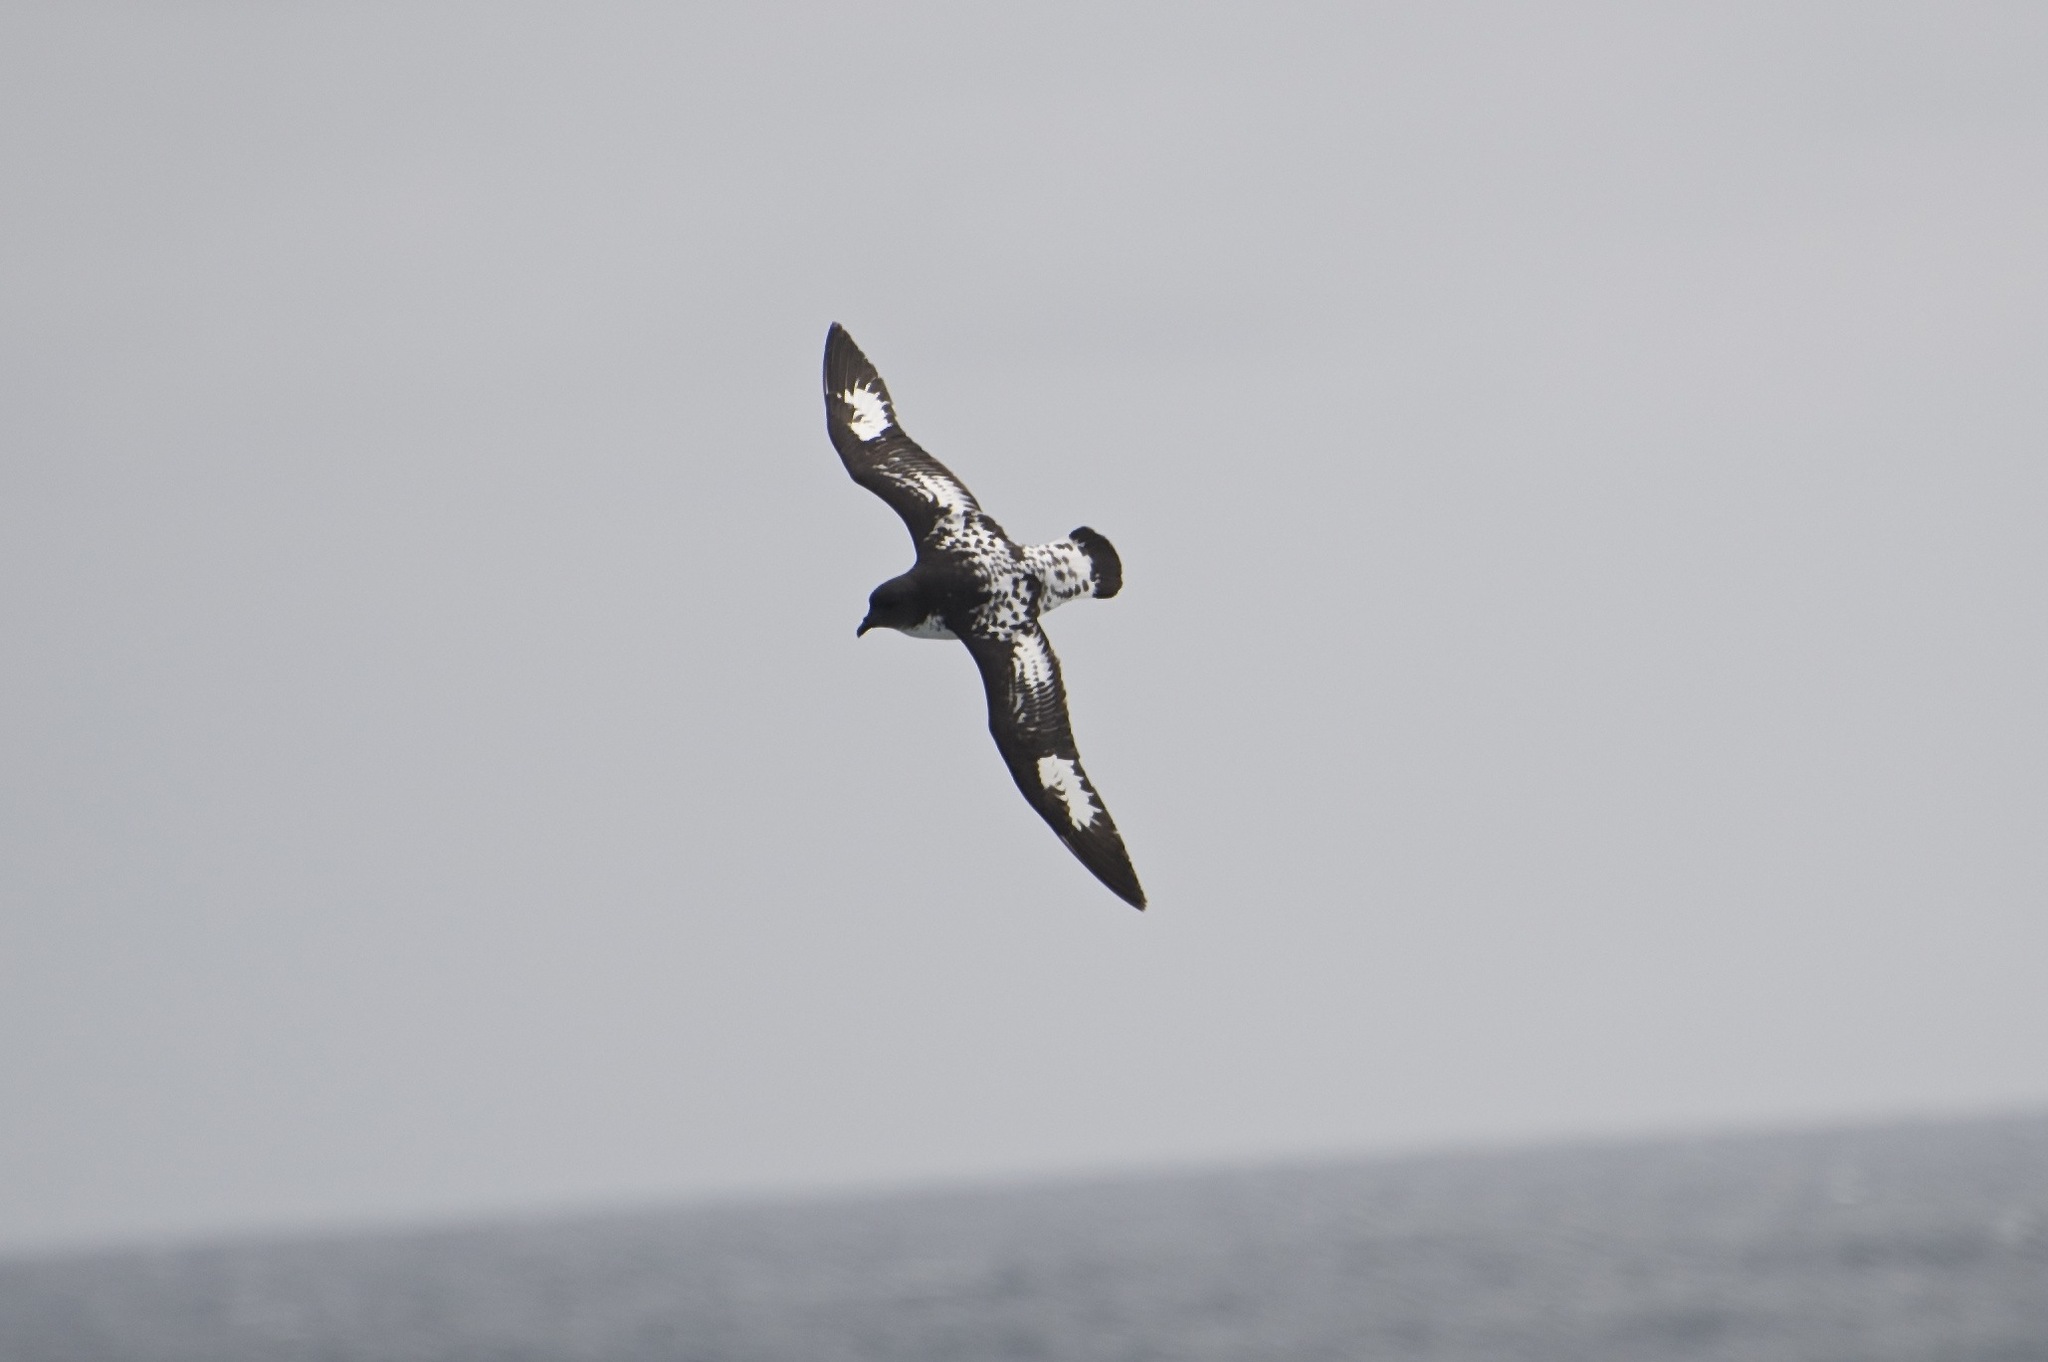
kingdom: Animalia
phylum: Chordata
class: Aves
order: Procellariiformes
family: Procellariidae
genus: Daption
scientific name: Daption capense
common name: Cape petrel
